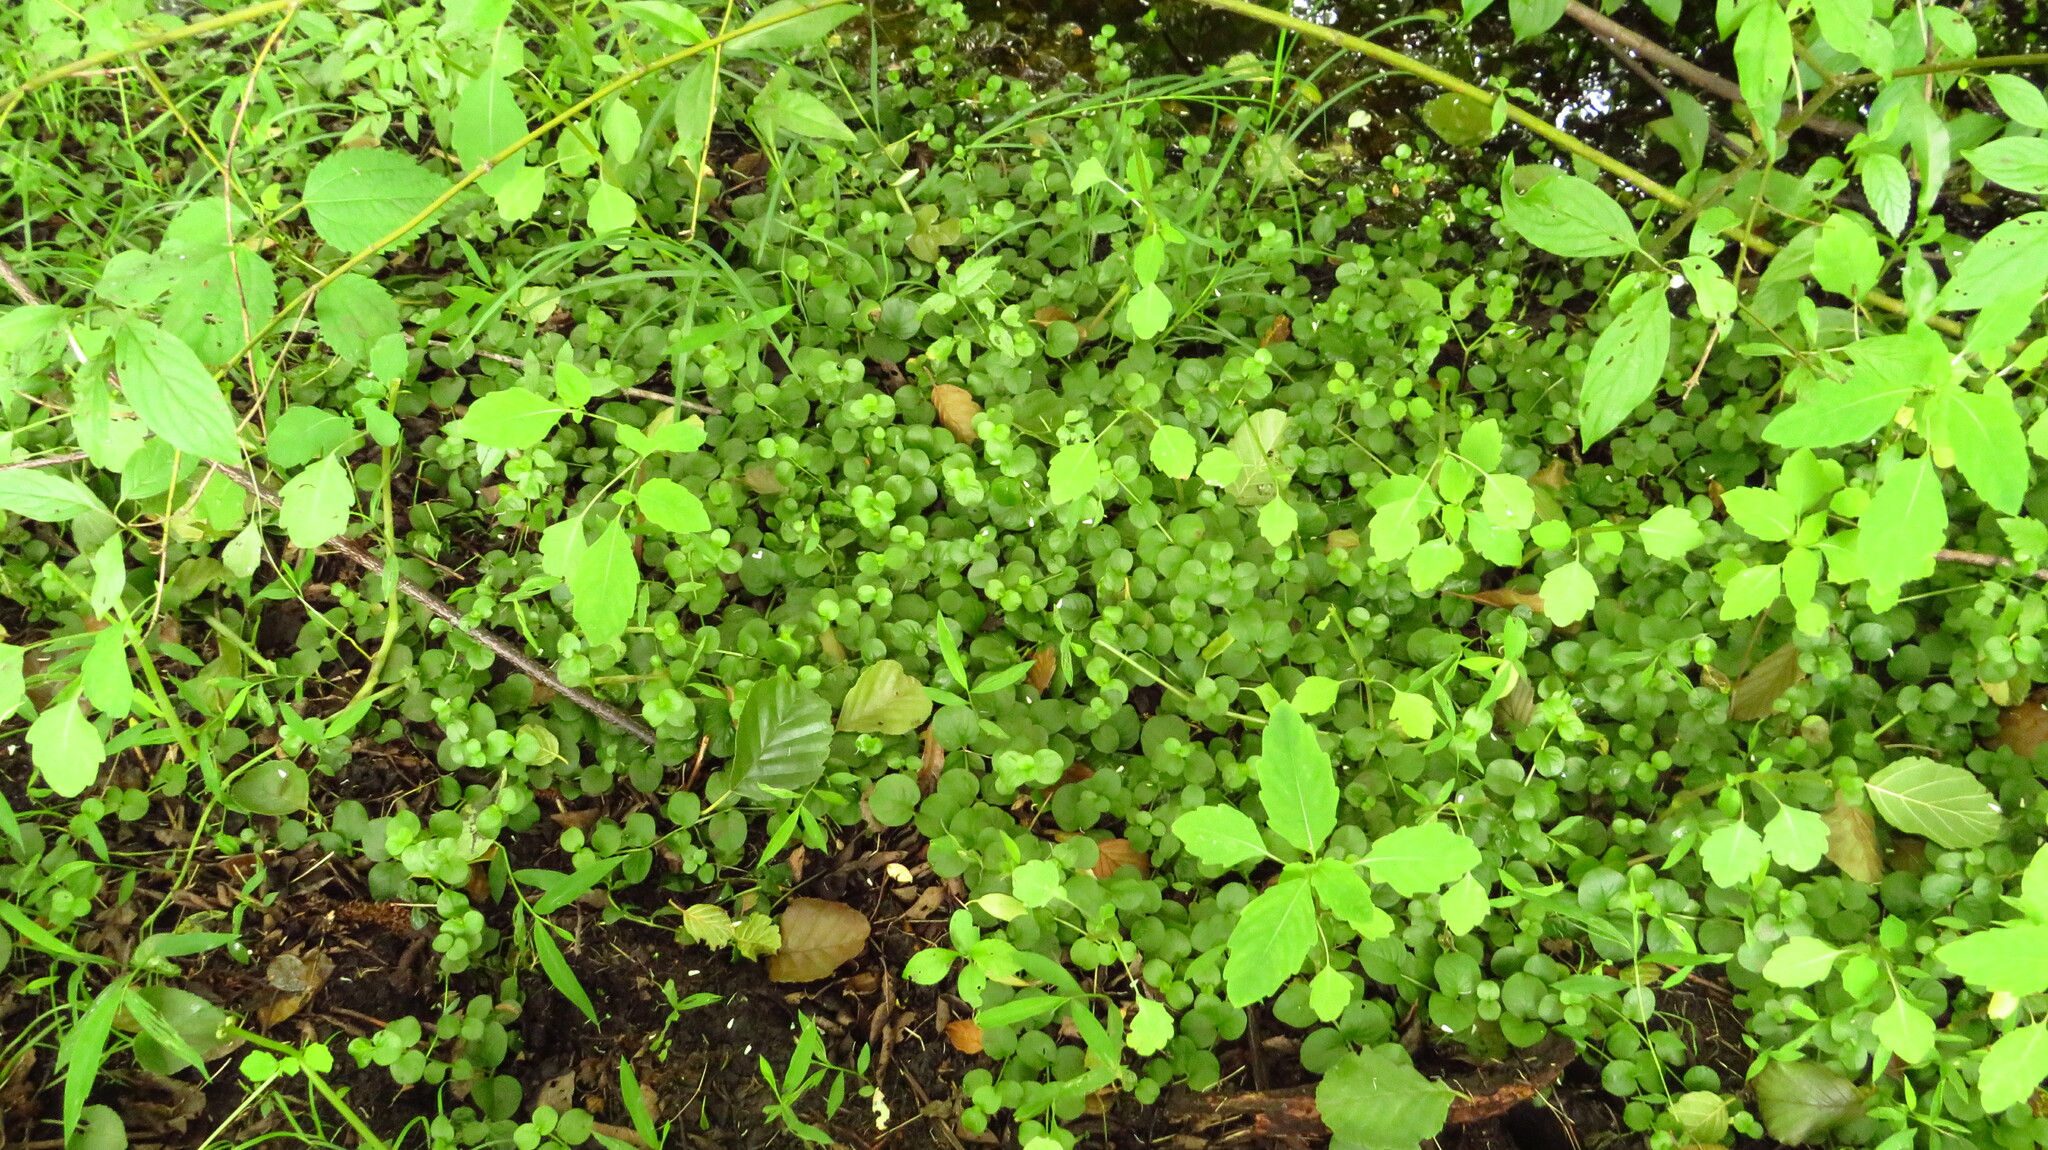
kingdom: Plantae
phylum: Tracheophyta
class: Magnoliopsida
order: Ericales
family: Balsaminaceae
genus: Impatiens
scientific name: Impatiens
